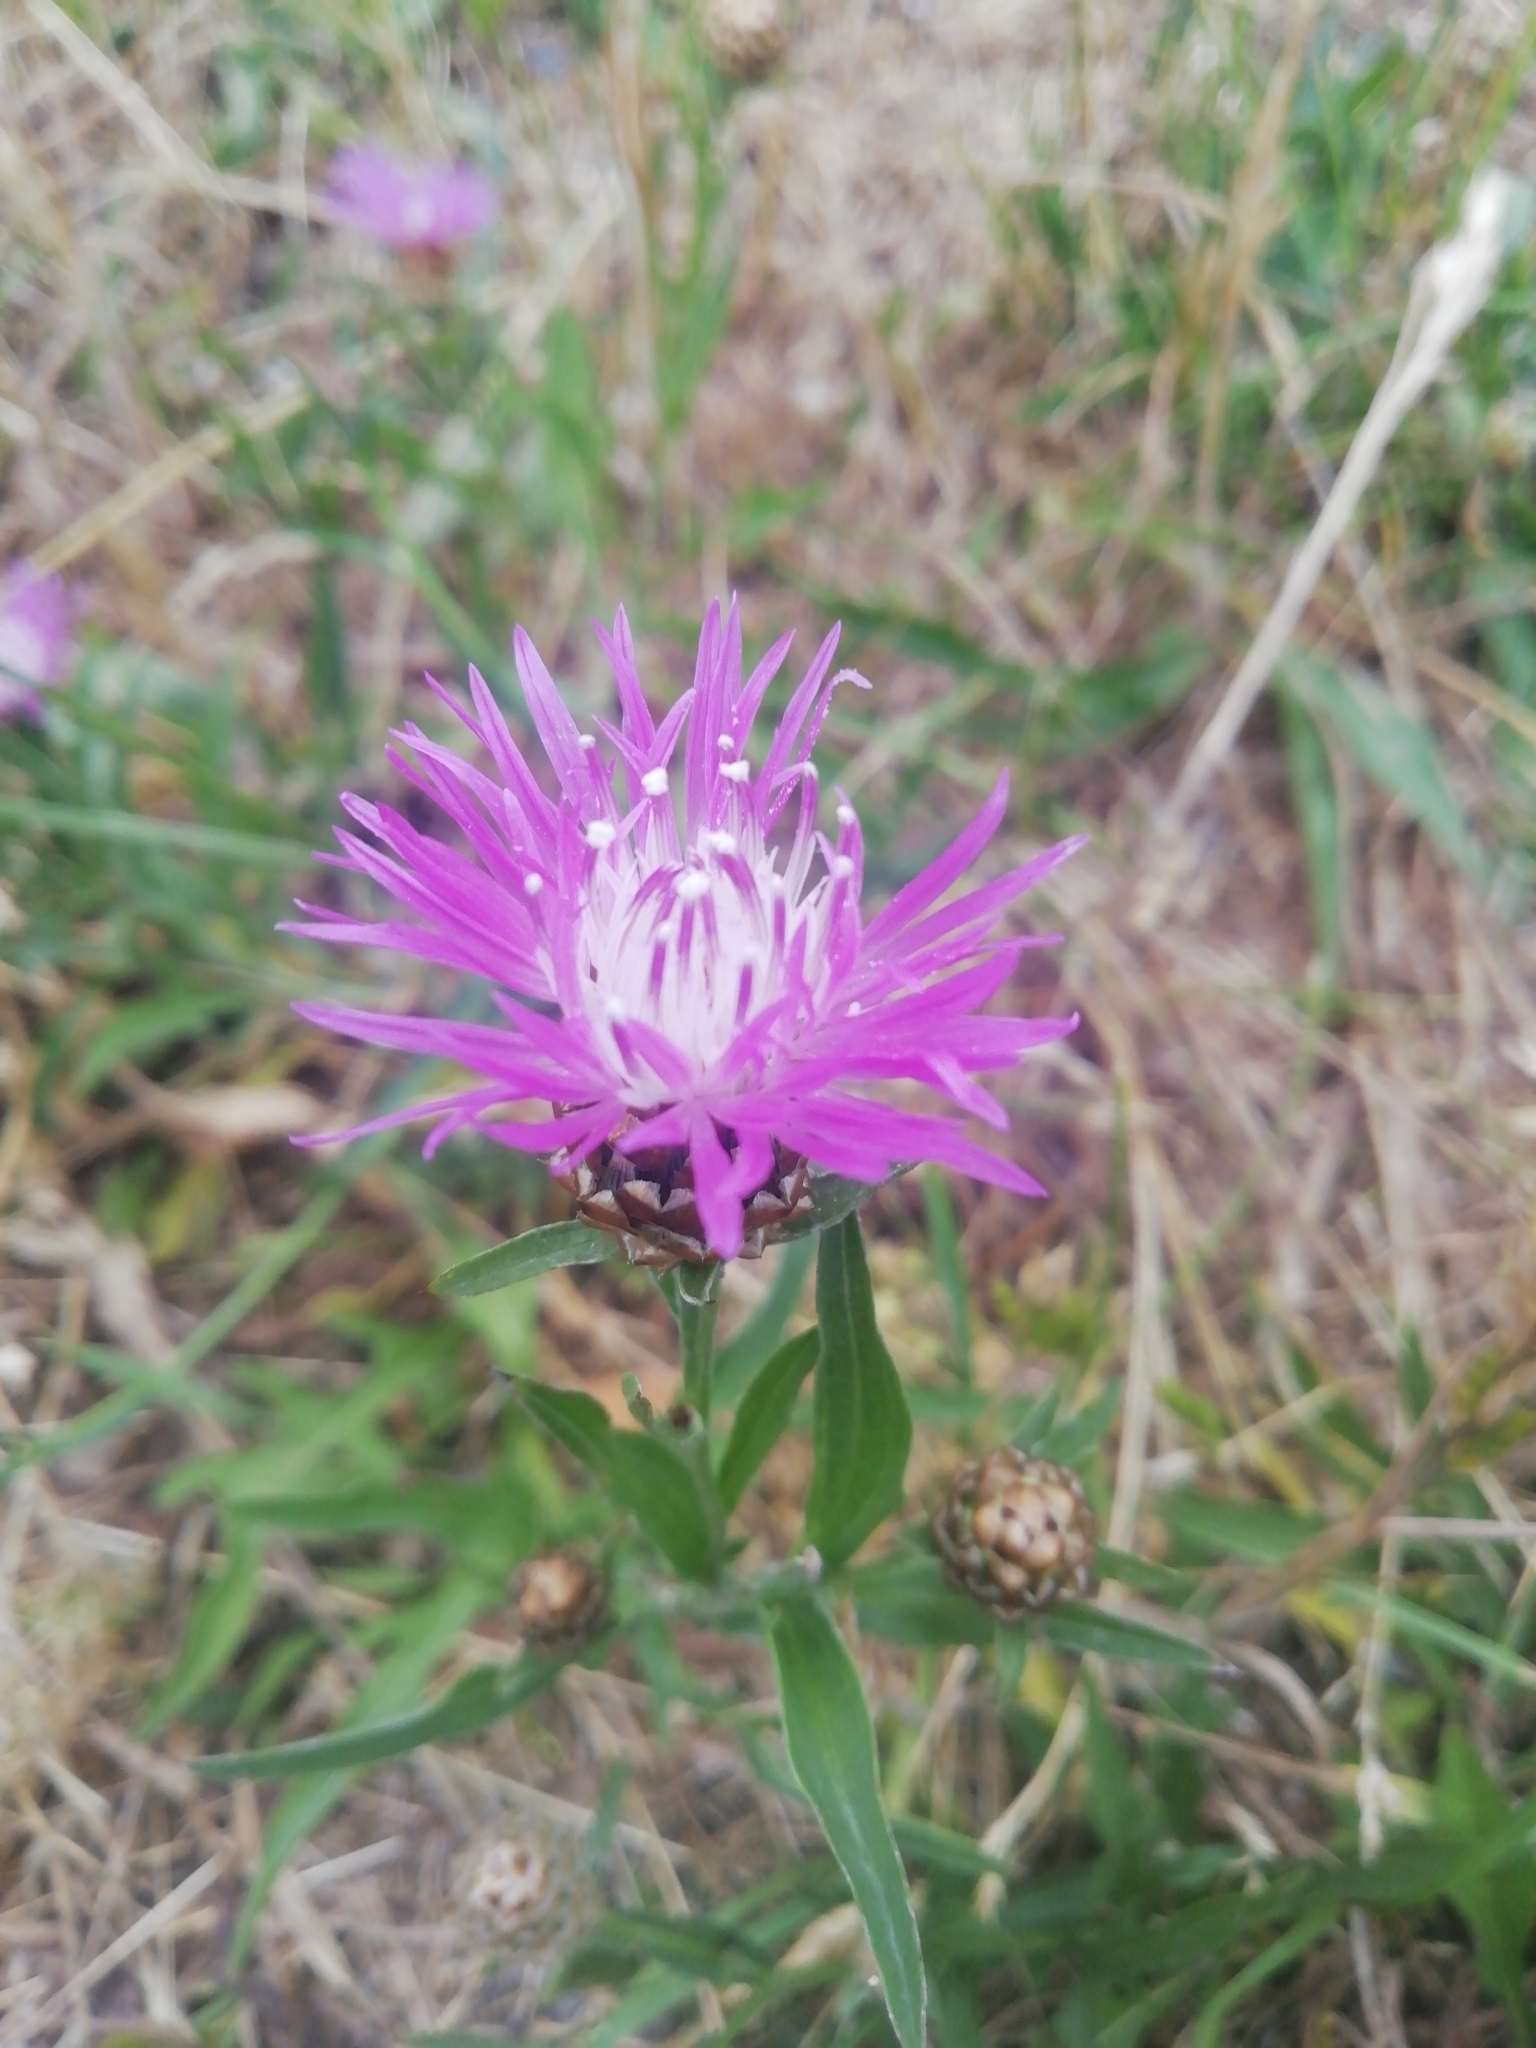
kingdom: Plantae
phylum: Tracheophyta
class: Magnoliopsida
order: Asterales
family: Asteraceae
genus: Centaurea
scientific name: Centaurea jacea
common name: Brown knapweed
